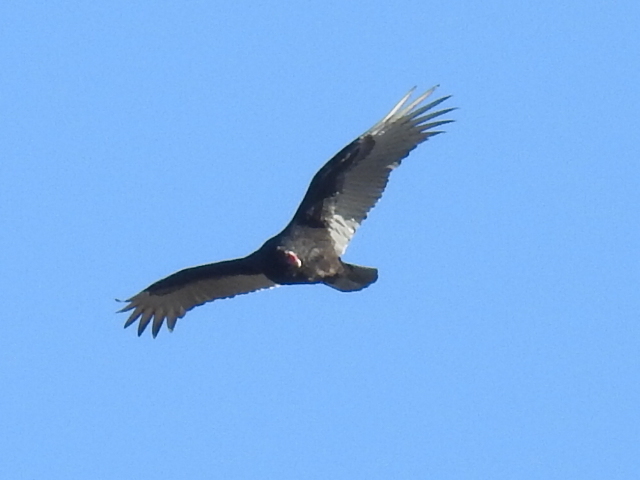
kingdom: Animalia
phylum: Chordata
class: Aves
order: Accipitriformes
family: Cathartidae
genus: Cathartes
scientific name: Cathartes aura
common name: Turkey vulture
